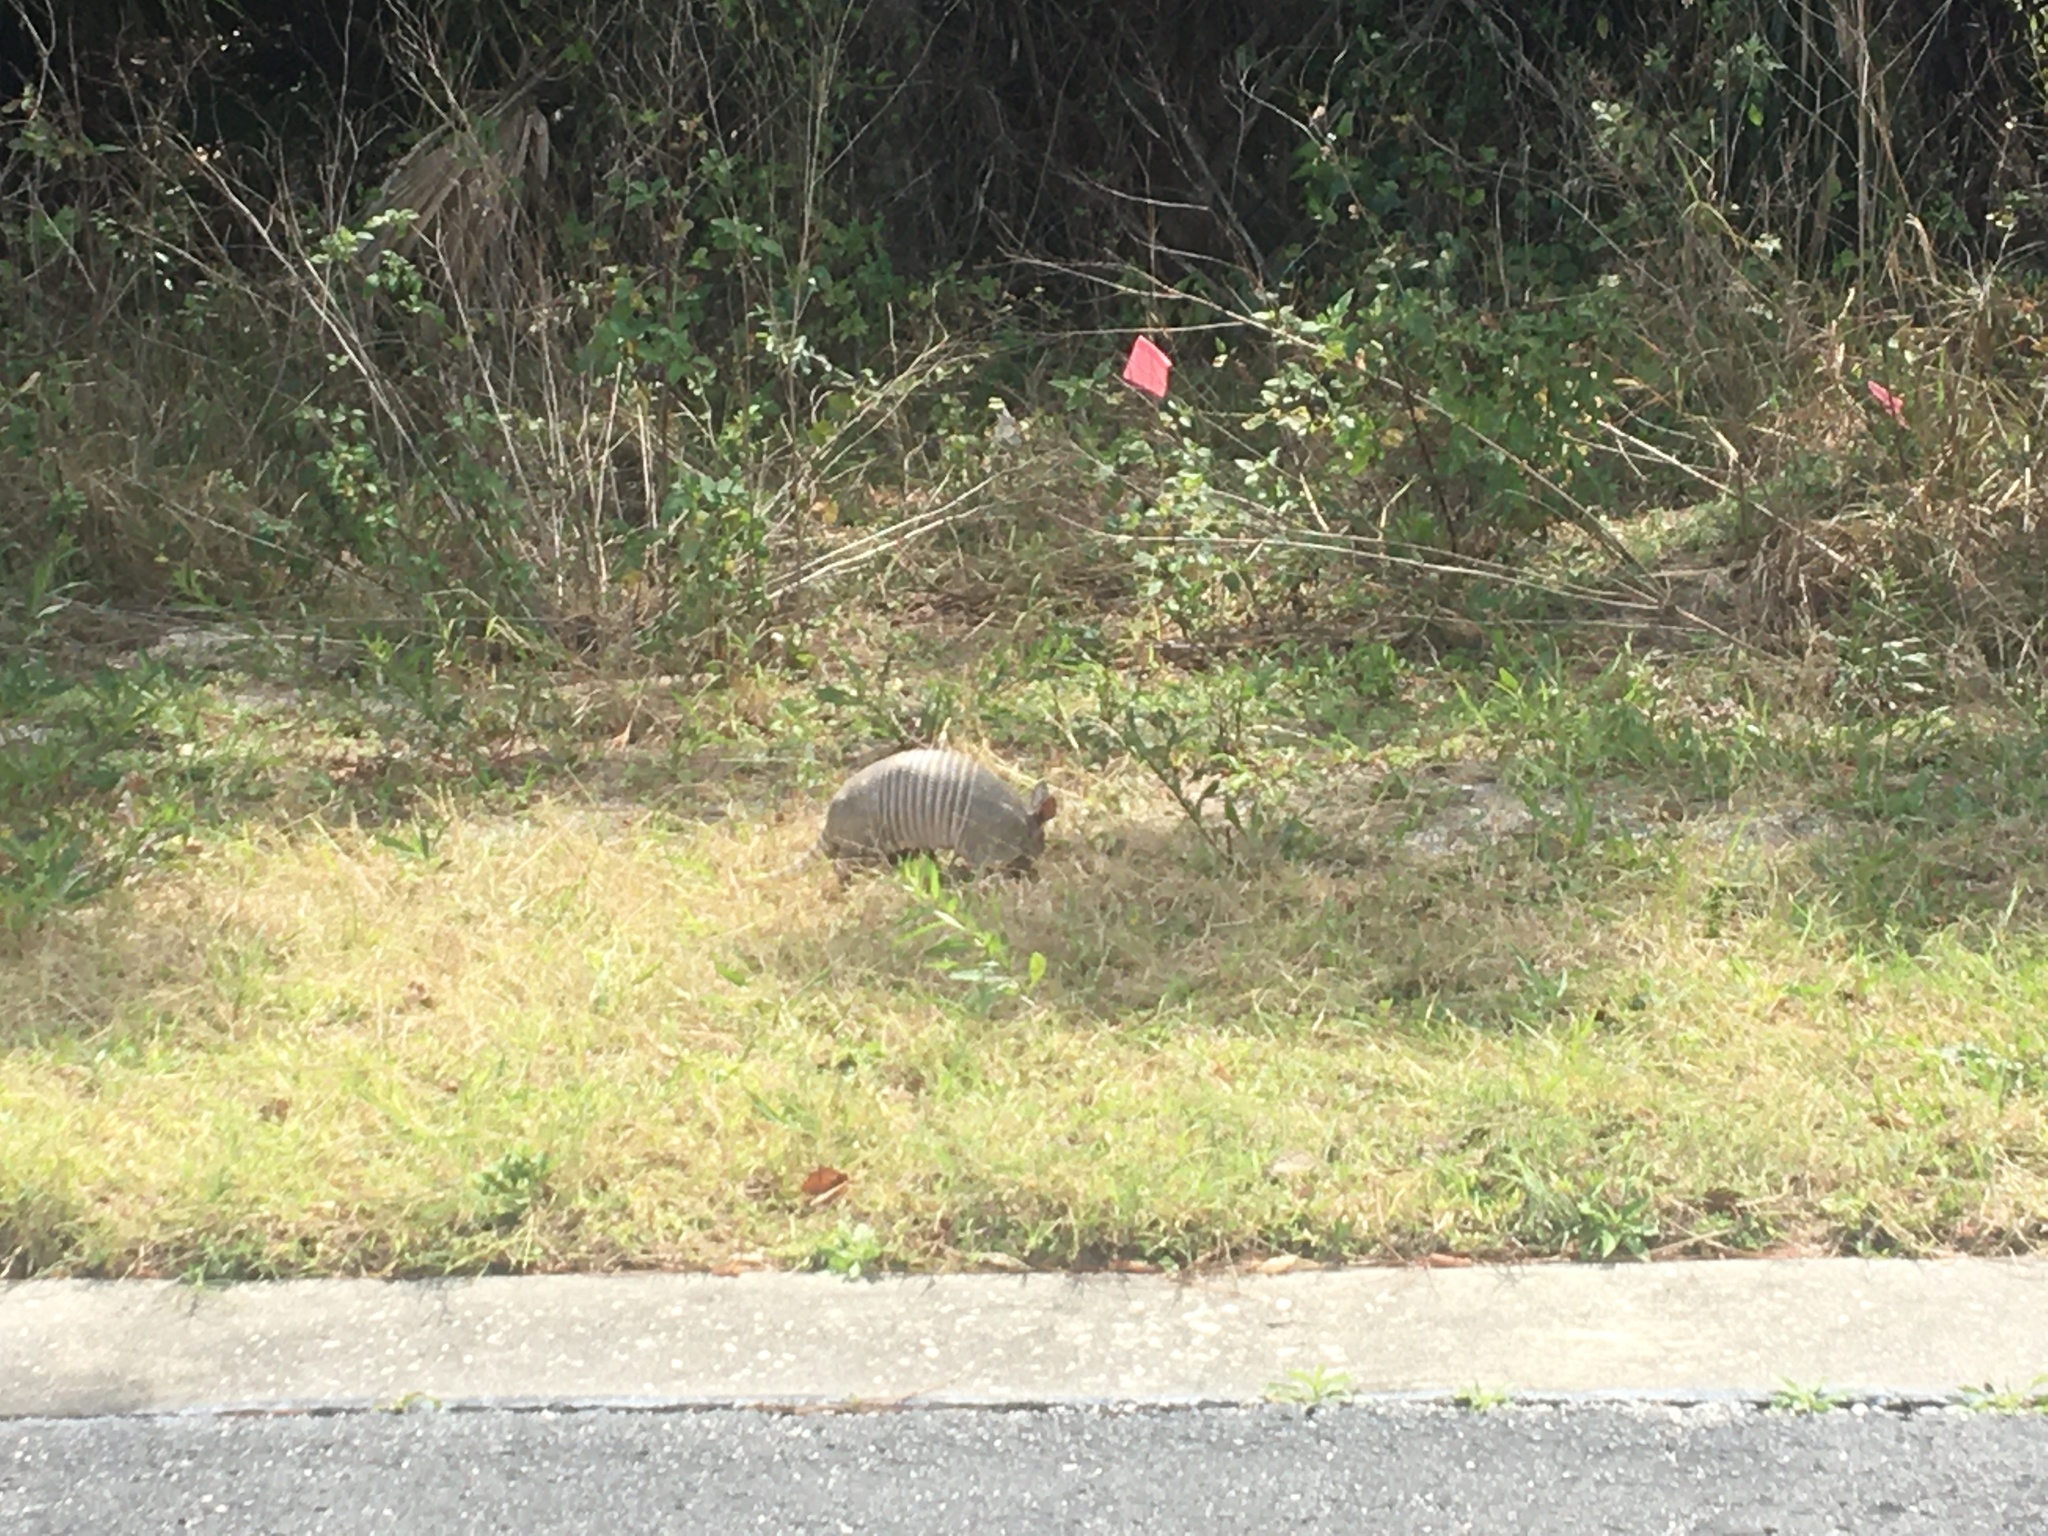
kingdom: Animalia
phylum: Chordata
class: Mammalia
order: Cingulata
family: Dasypodidae
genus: Dasypus
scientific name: Dasypus novemcinctus
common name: Nine-banded armadillo
